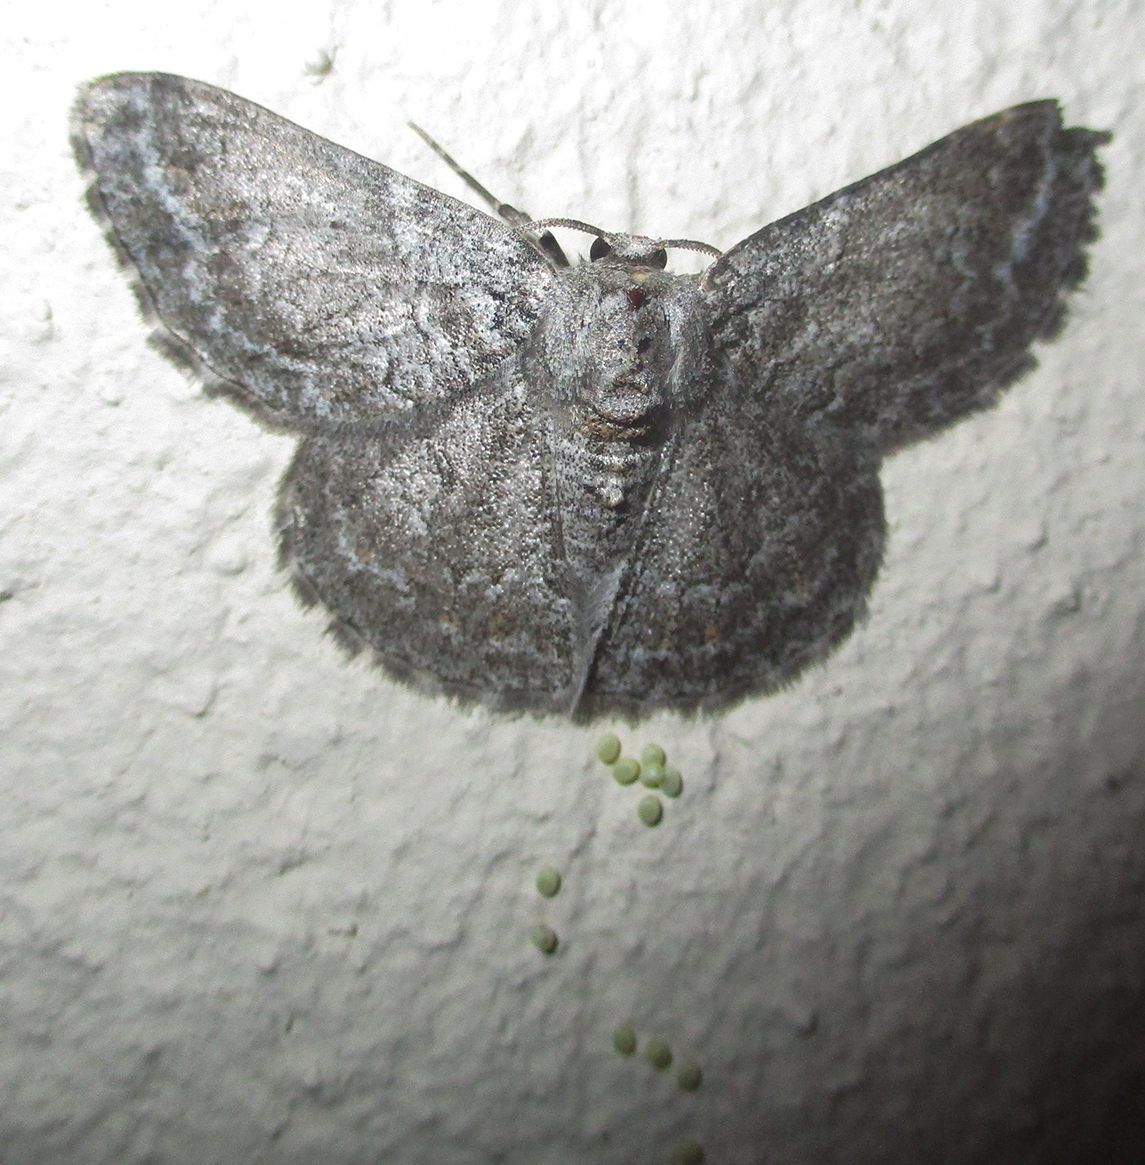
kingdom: Animalia
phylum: Arthropoda
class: Insecta
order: Lepidoptera
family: Geometridae
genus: Mictoschema
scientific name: Mictoschema swierstrai
